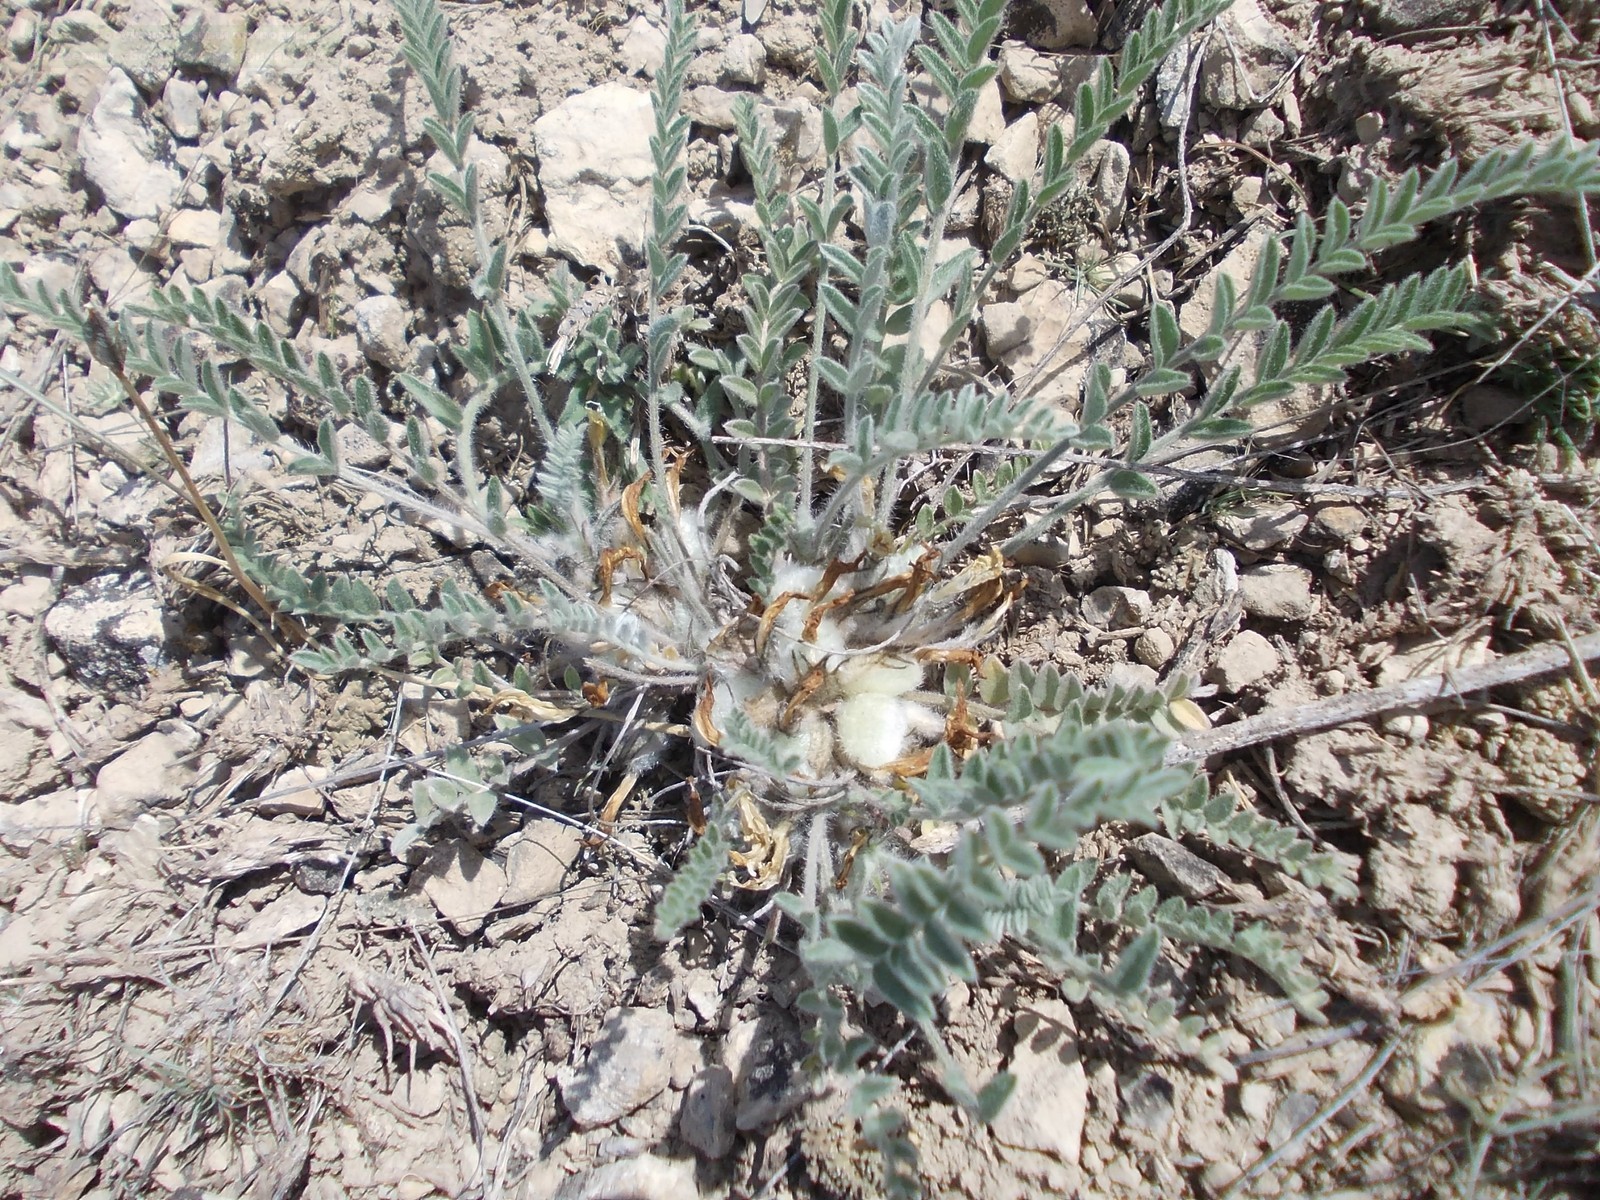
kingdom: Plantae
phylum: Tracheophyta
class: Magnoliopsida
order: Fabales
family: Fabaceae
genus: Astragalus
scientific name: Astragalus testiculatus
